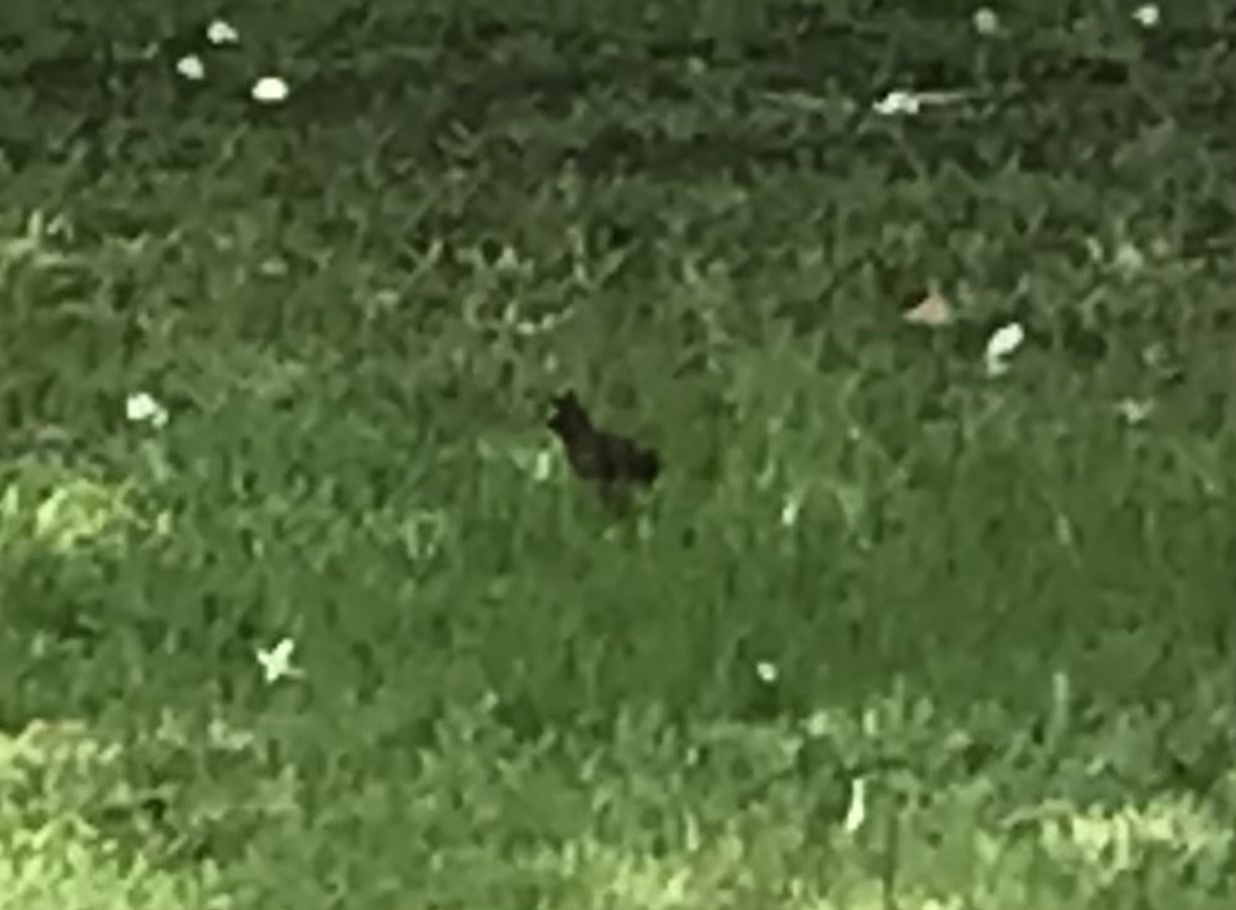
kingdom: Animalia
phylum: Chordata
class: Aves
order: Passeriformes
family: Sturnidae
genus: Acridotheres
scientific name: Acridotheres grandis
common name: Great myna
